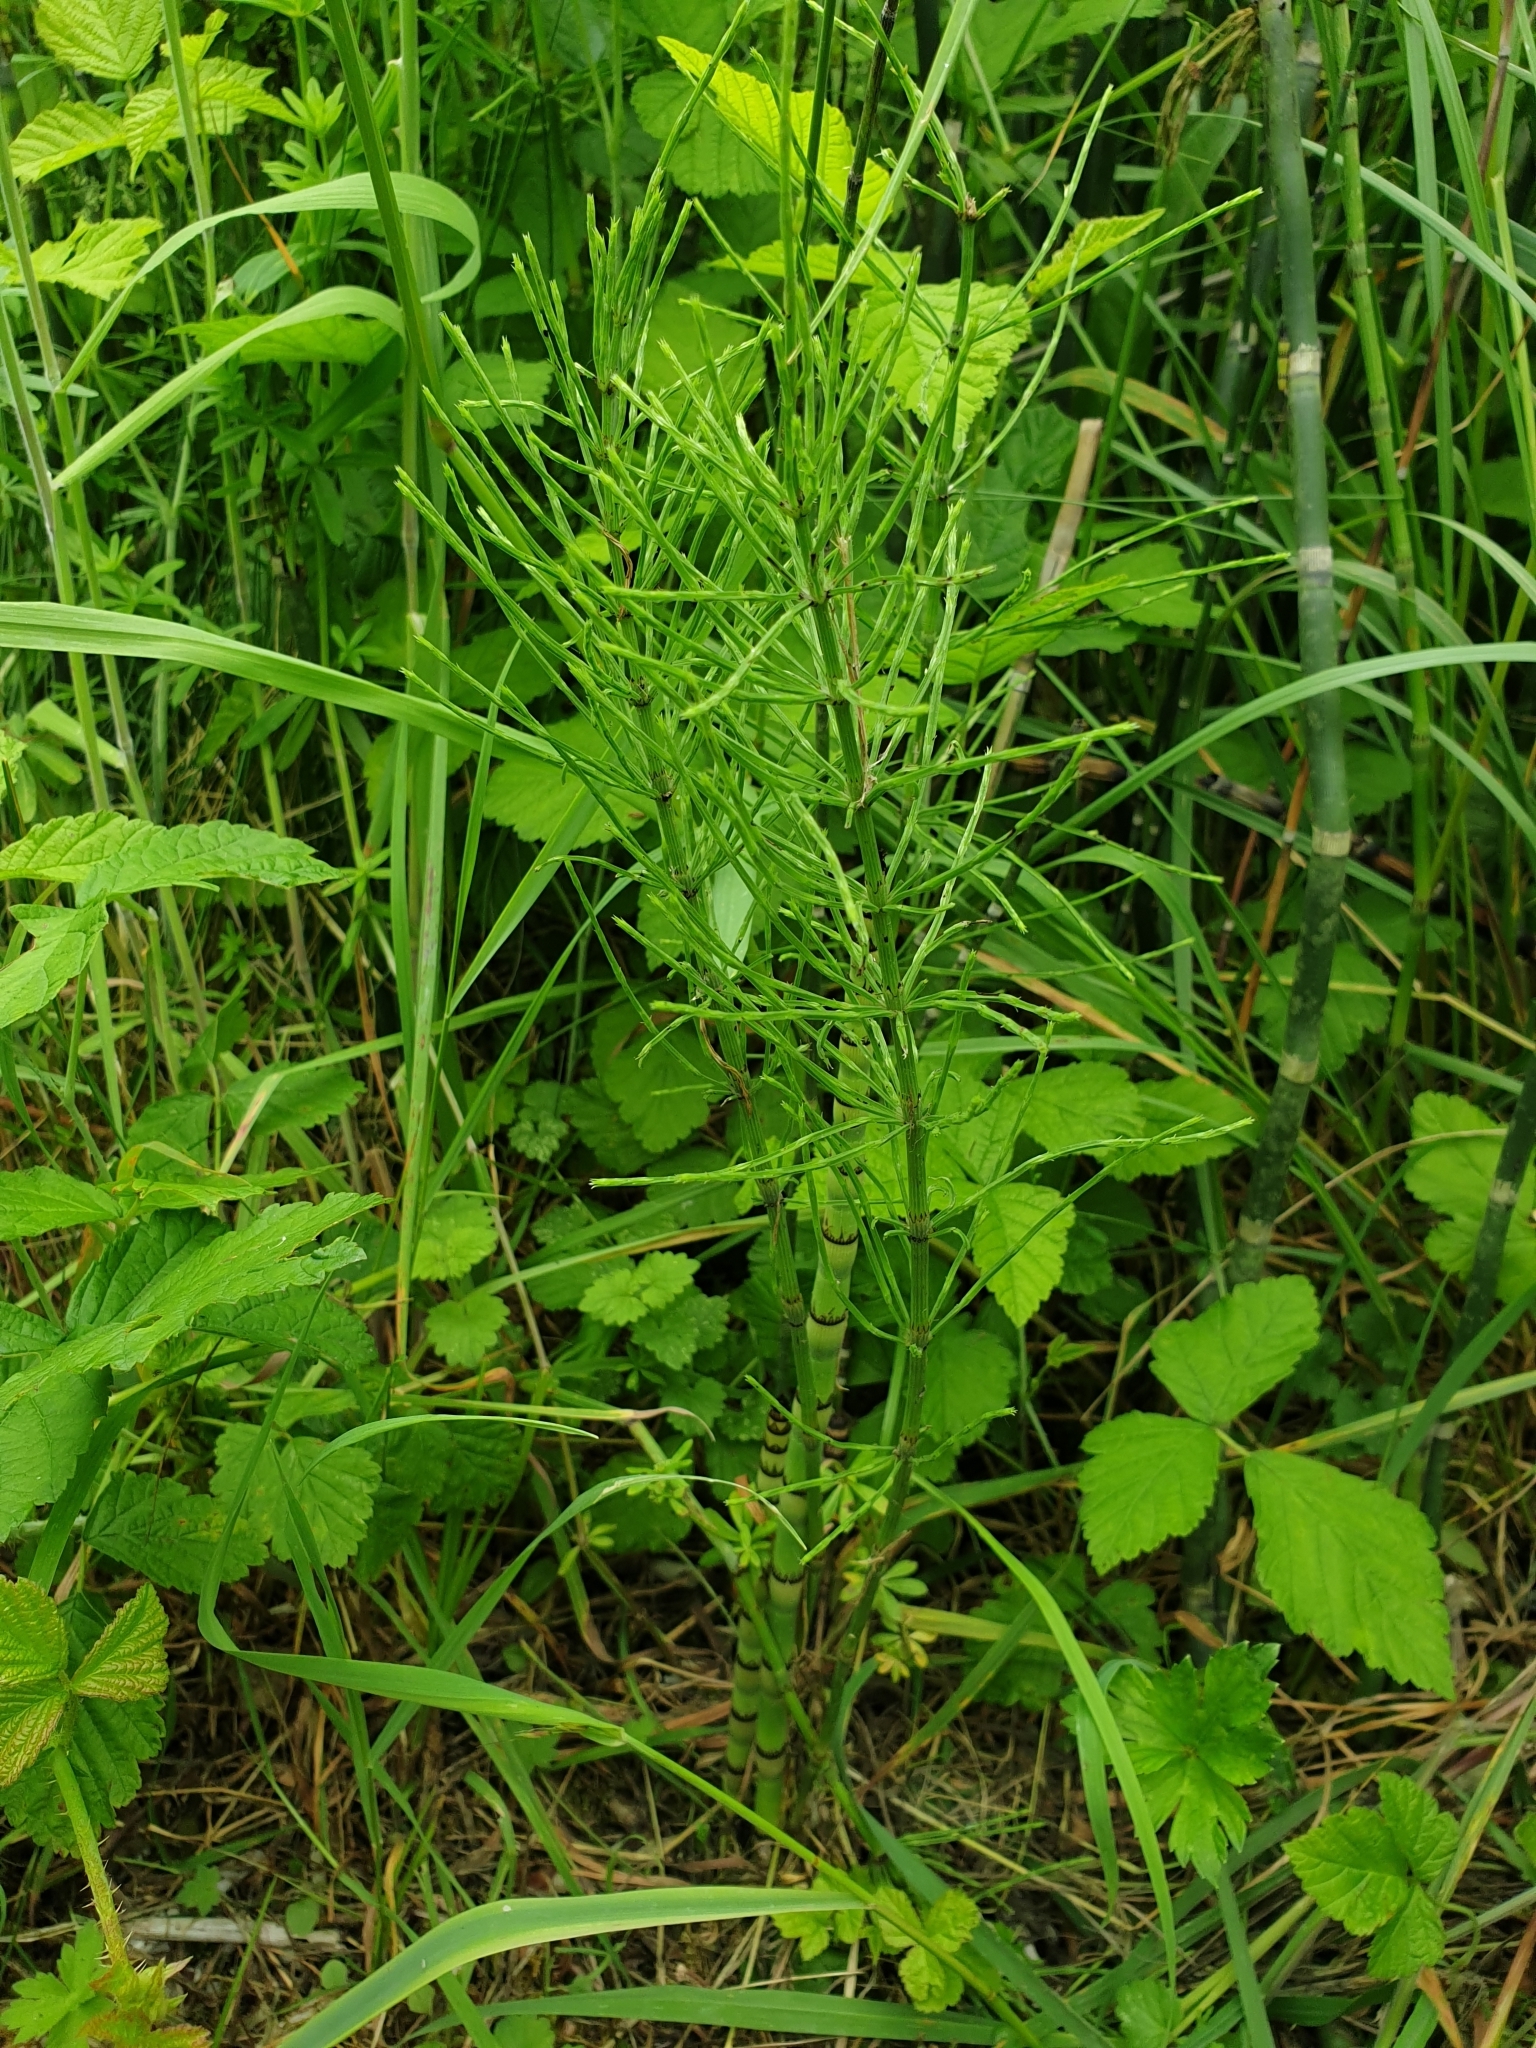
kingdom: Plantae
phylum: Tracheophyta
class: Polypodiopsida
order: Equisetales
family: Equisetaceae
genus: Equisetum
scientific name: Equisetum arvense
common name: Field horsetail
